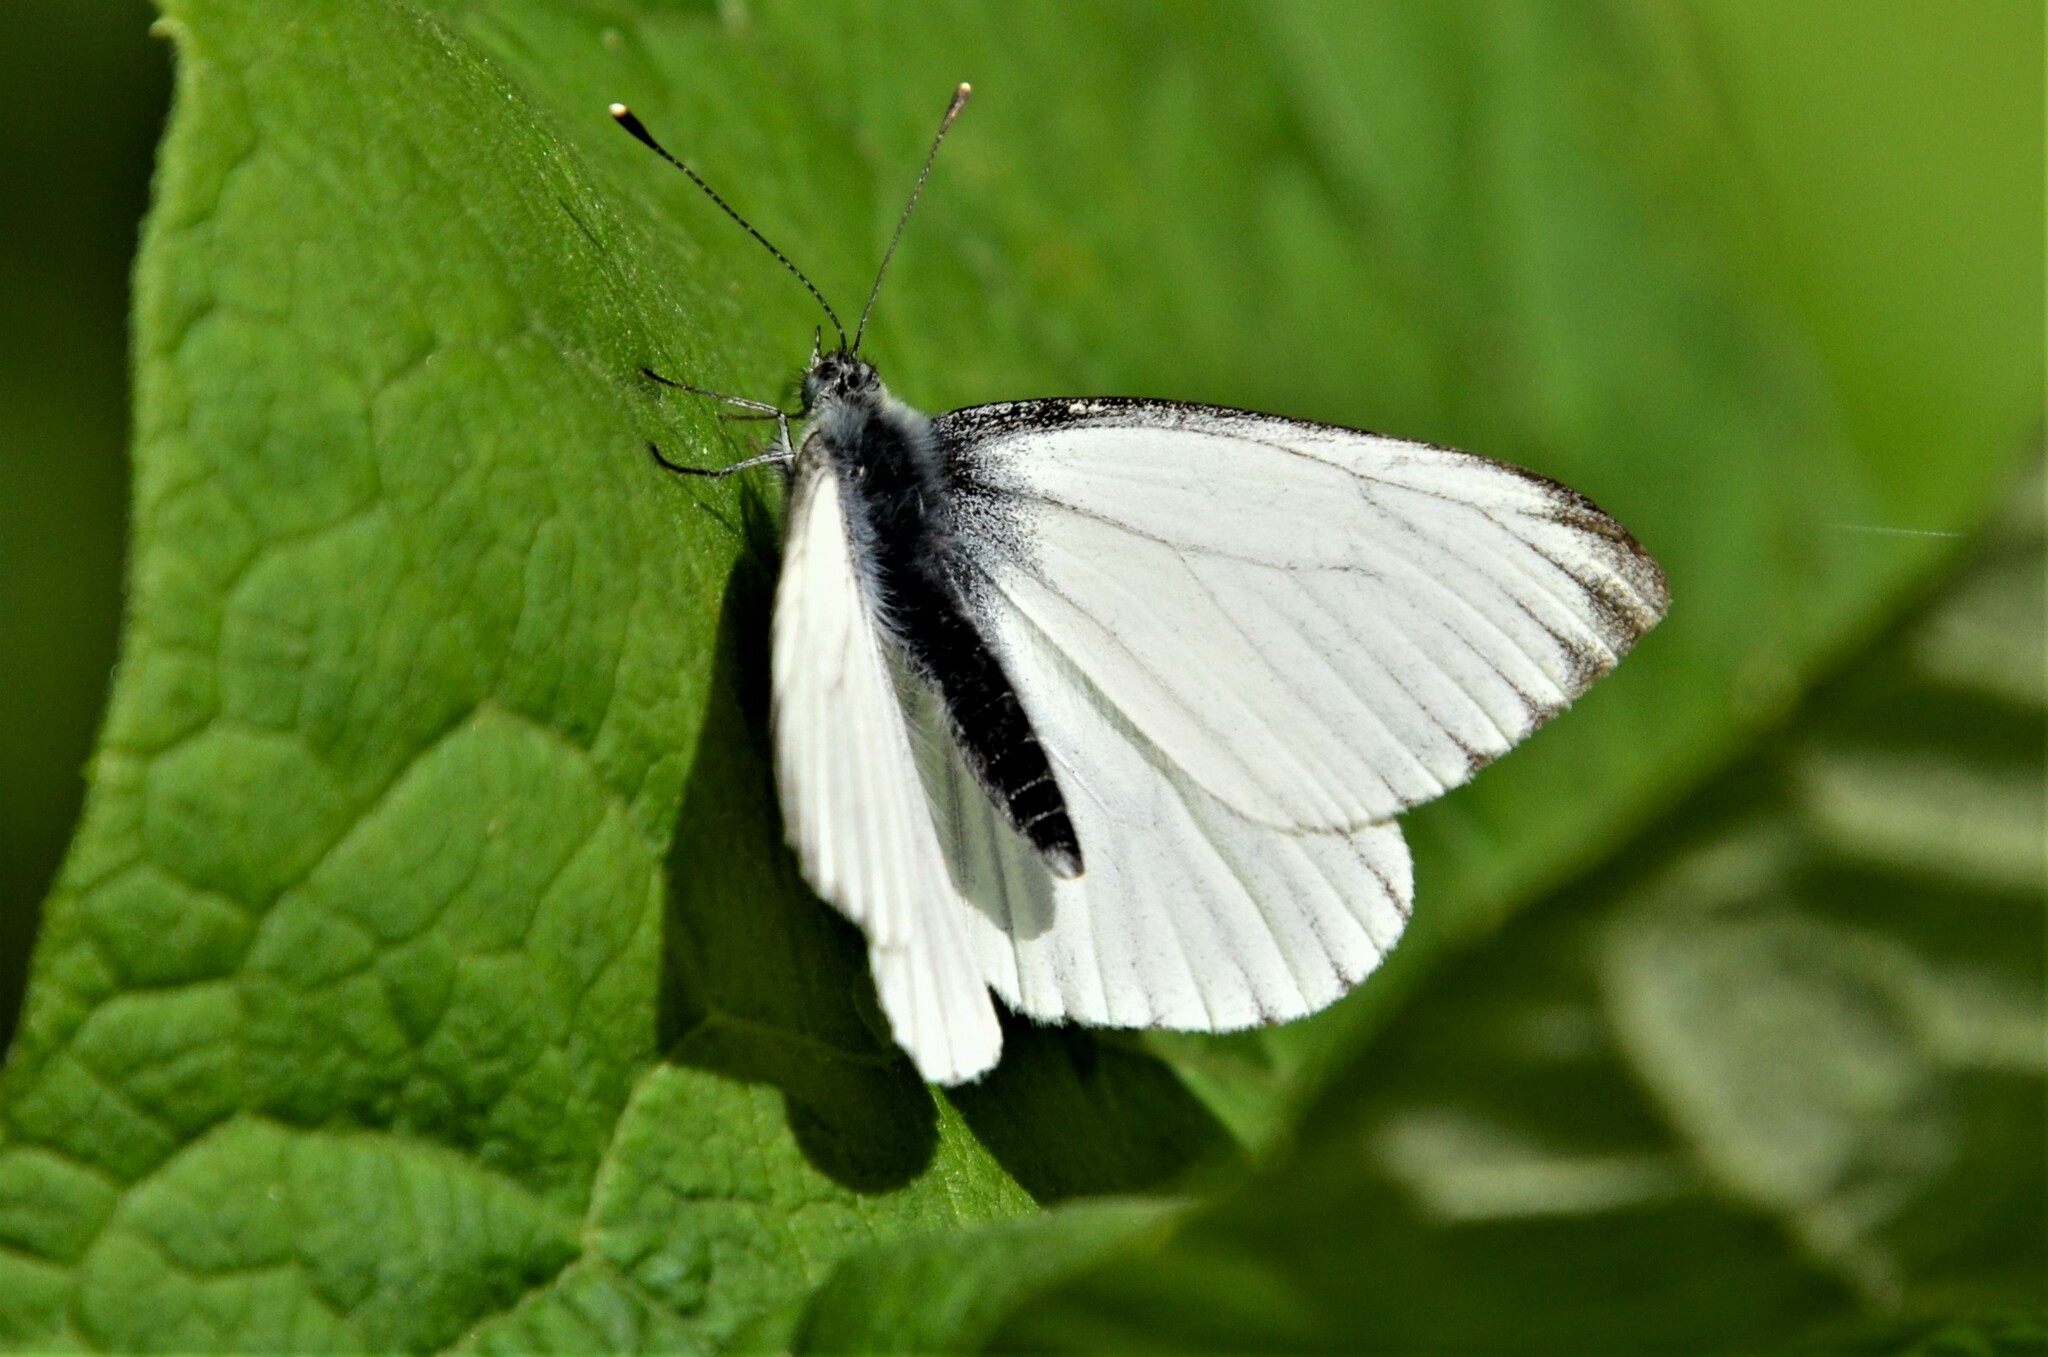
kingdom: Animalia
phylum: Arthropoda
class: Insecta
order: Lepidoptera
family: Pieridae
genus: Pieris
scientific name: Pieris napi
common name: Green-veined white
